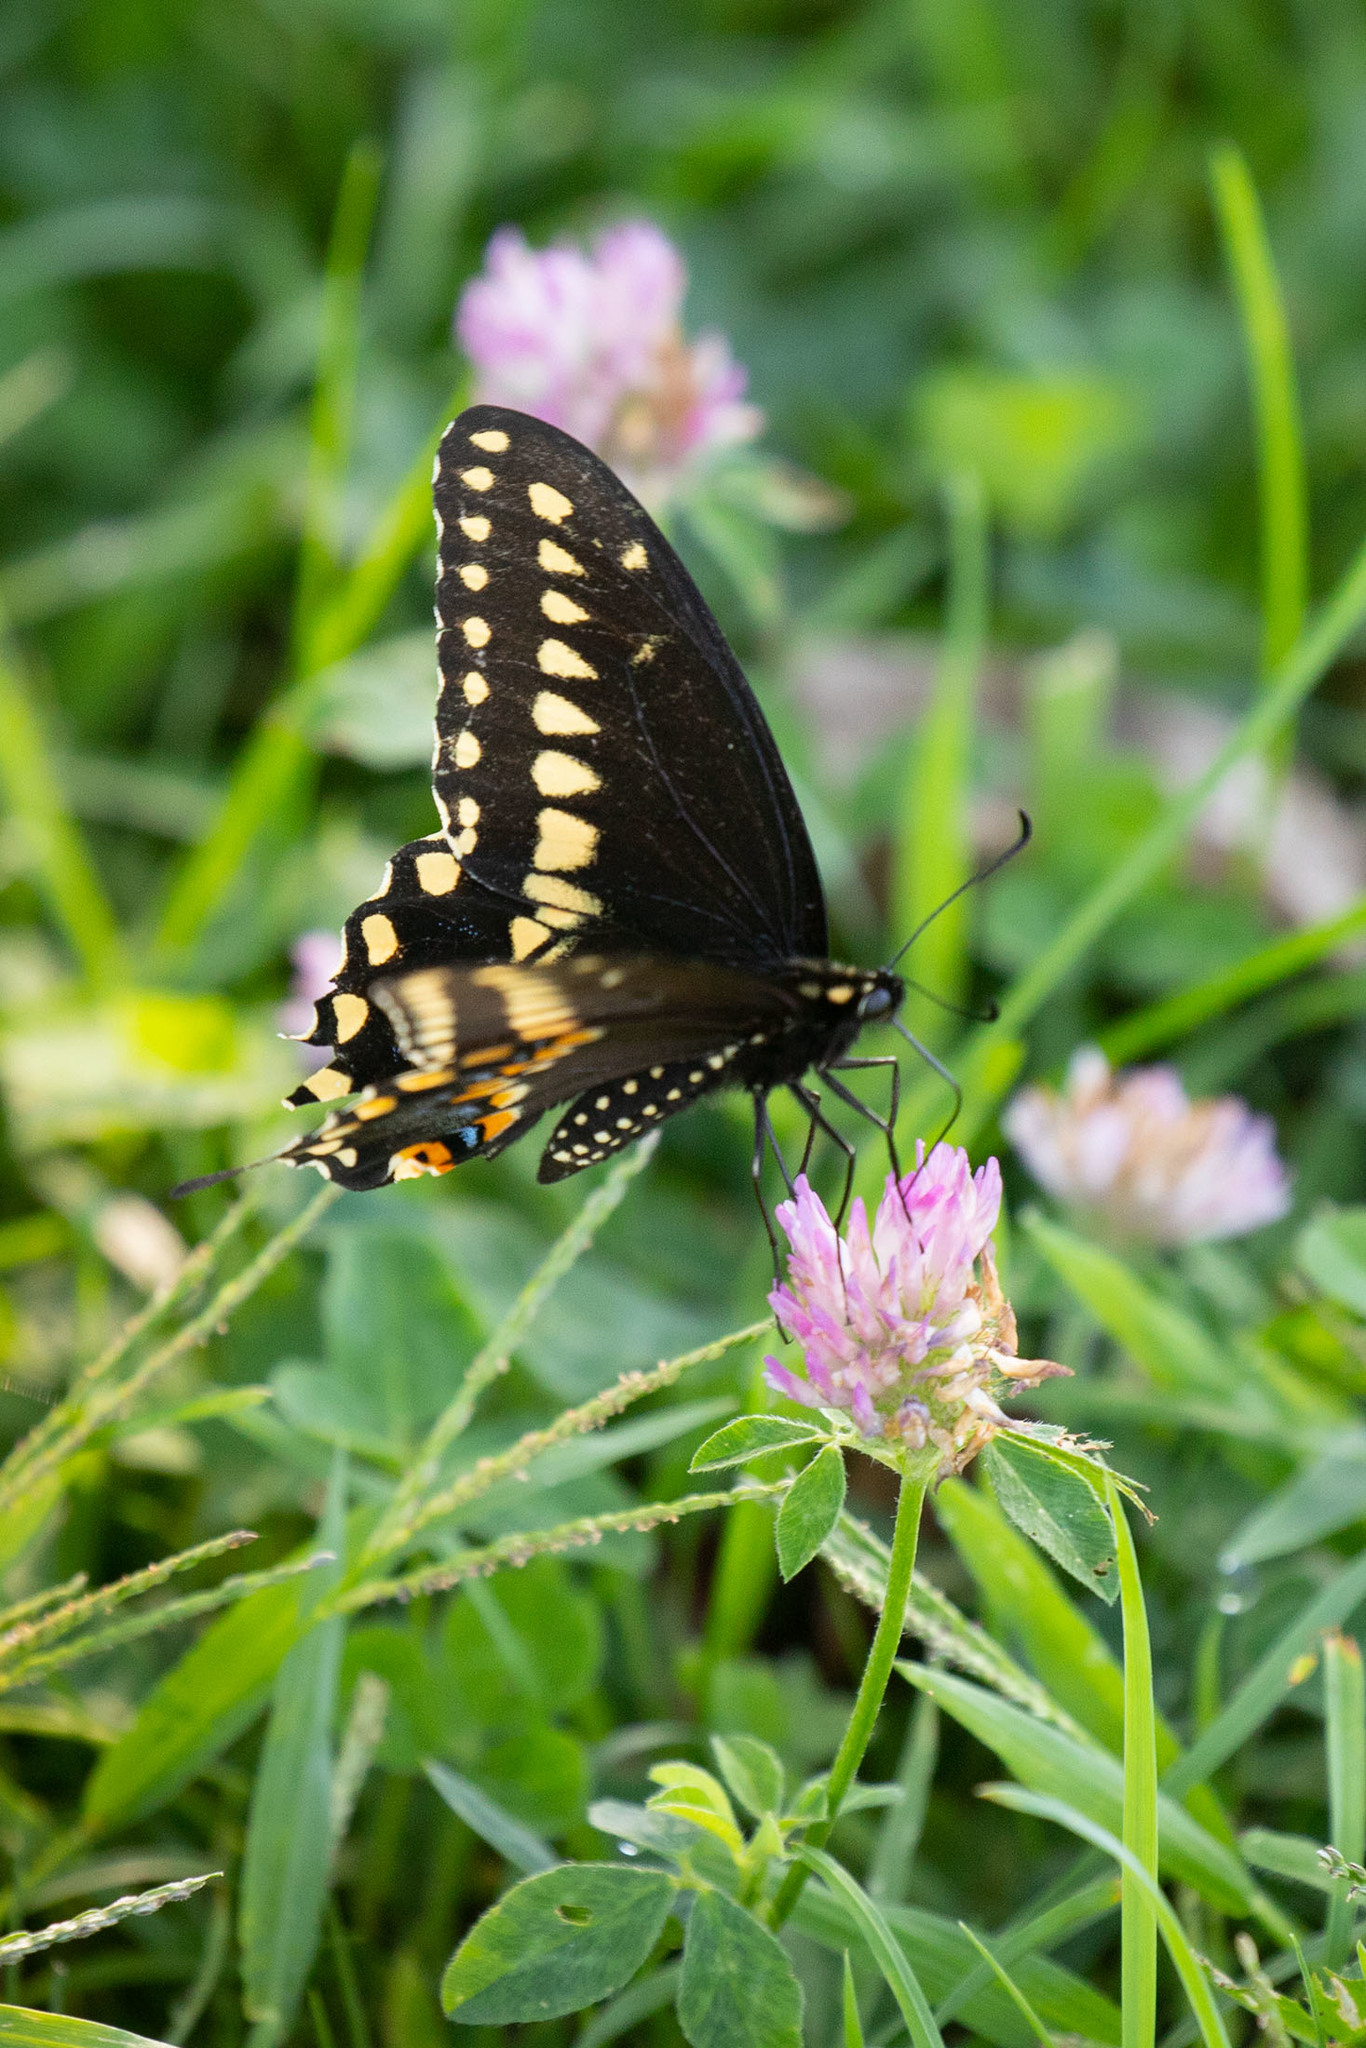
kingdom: Animalia
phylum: Arthropoda
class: Insecta
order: Lepidoptera
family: Papilionidae
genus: Papilio
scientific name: Papilio polyxenes
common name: Black swallowtail
